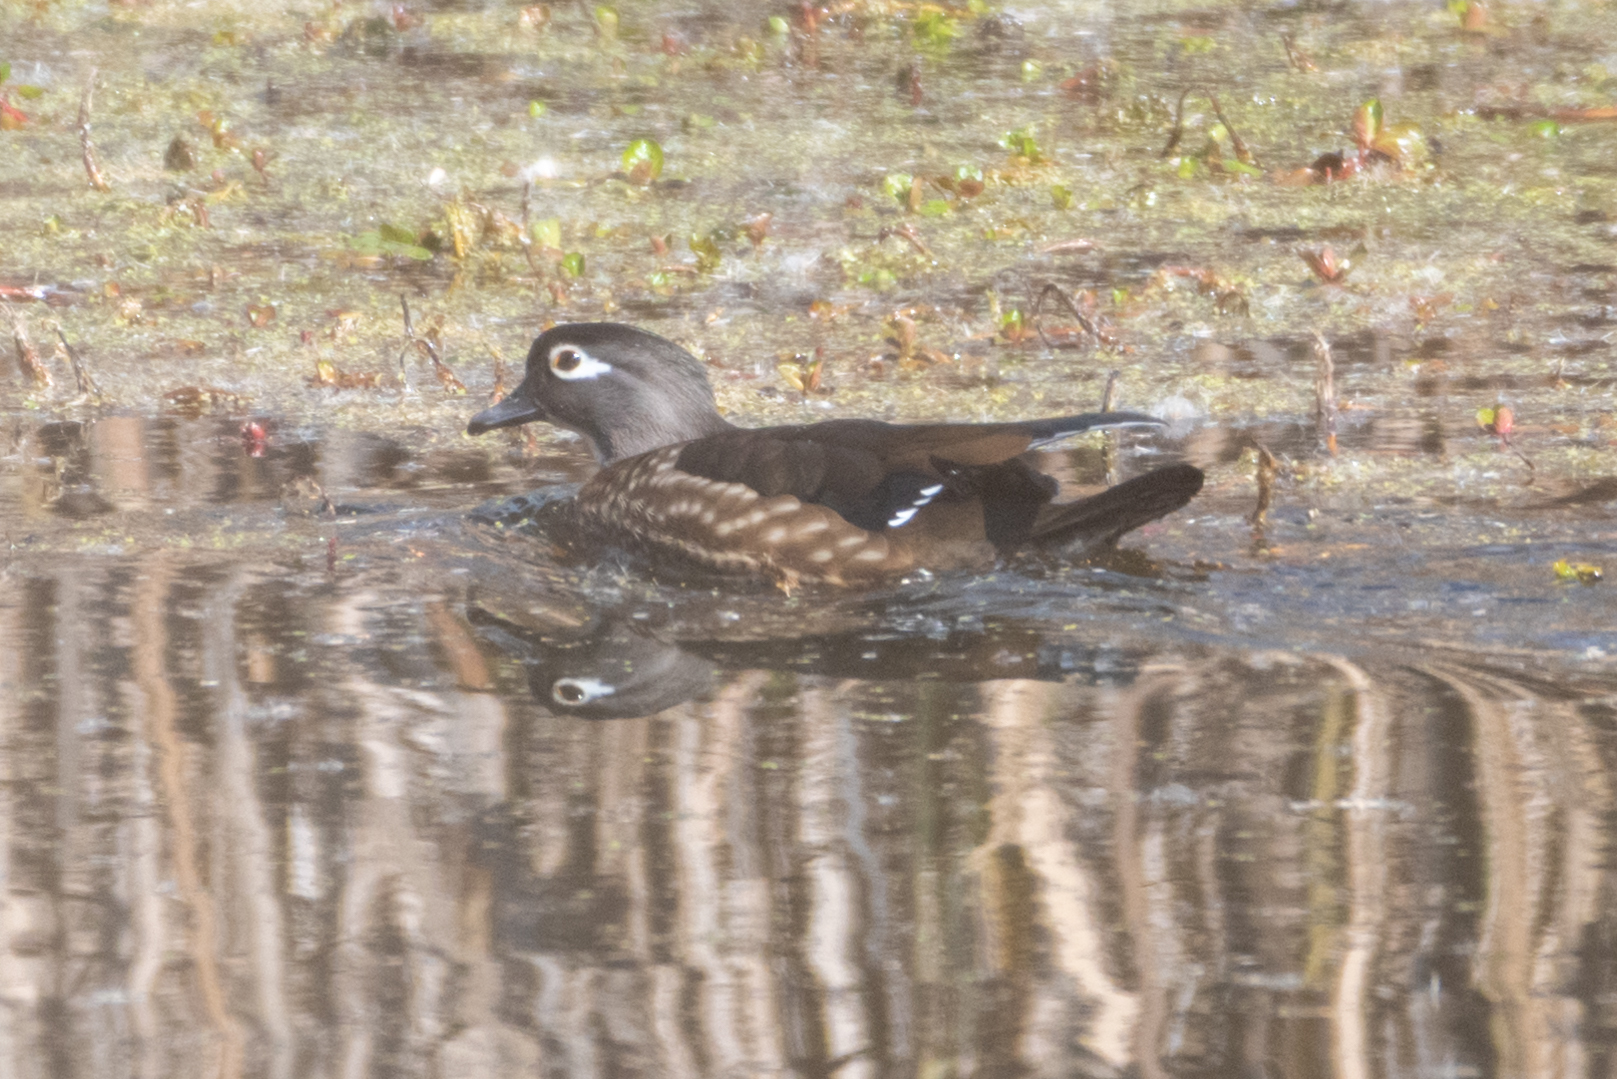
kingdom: Animalia
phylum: Chordata
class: Aves
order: Anseriformes
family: Anatidae
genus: Aix
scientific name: Aix sponsa
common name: Wood duck
